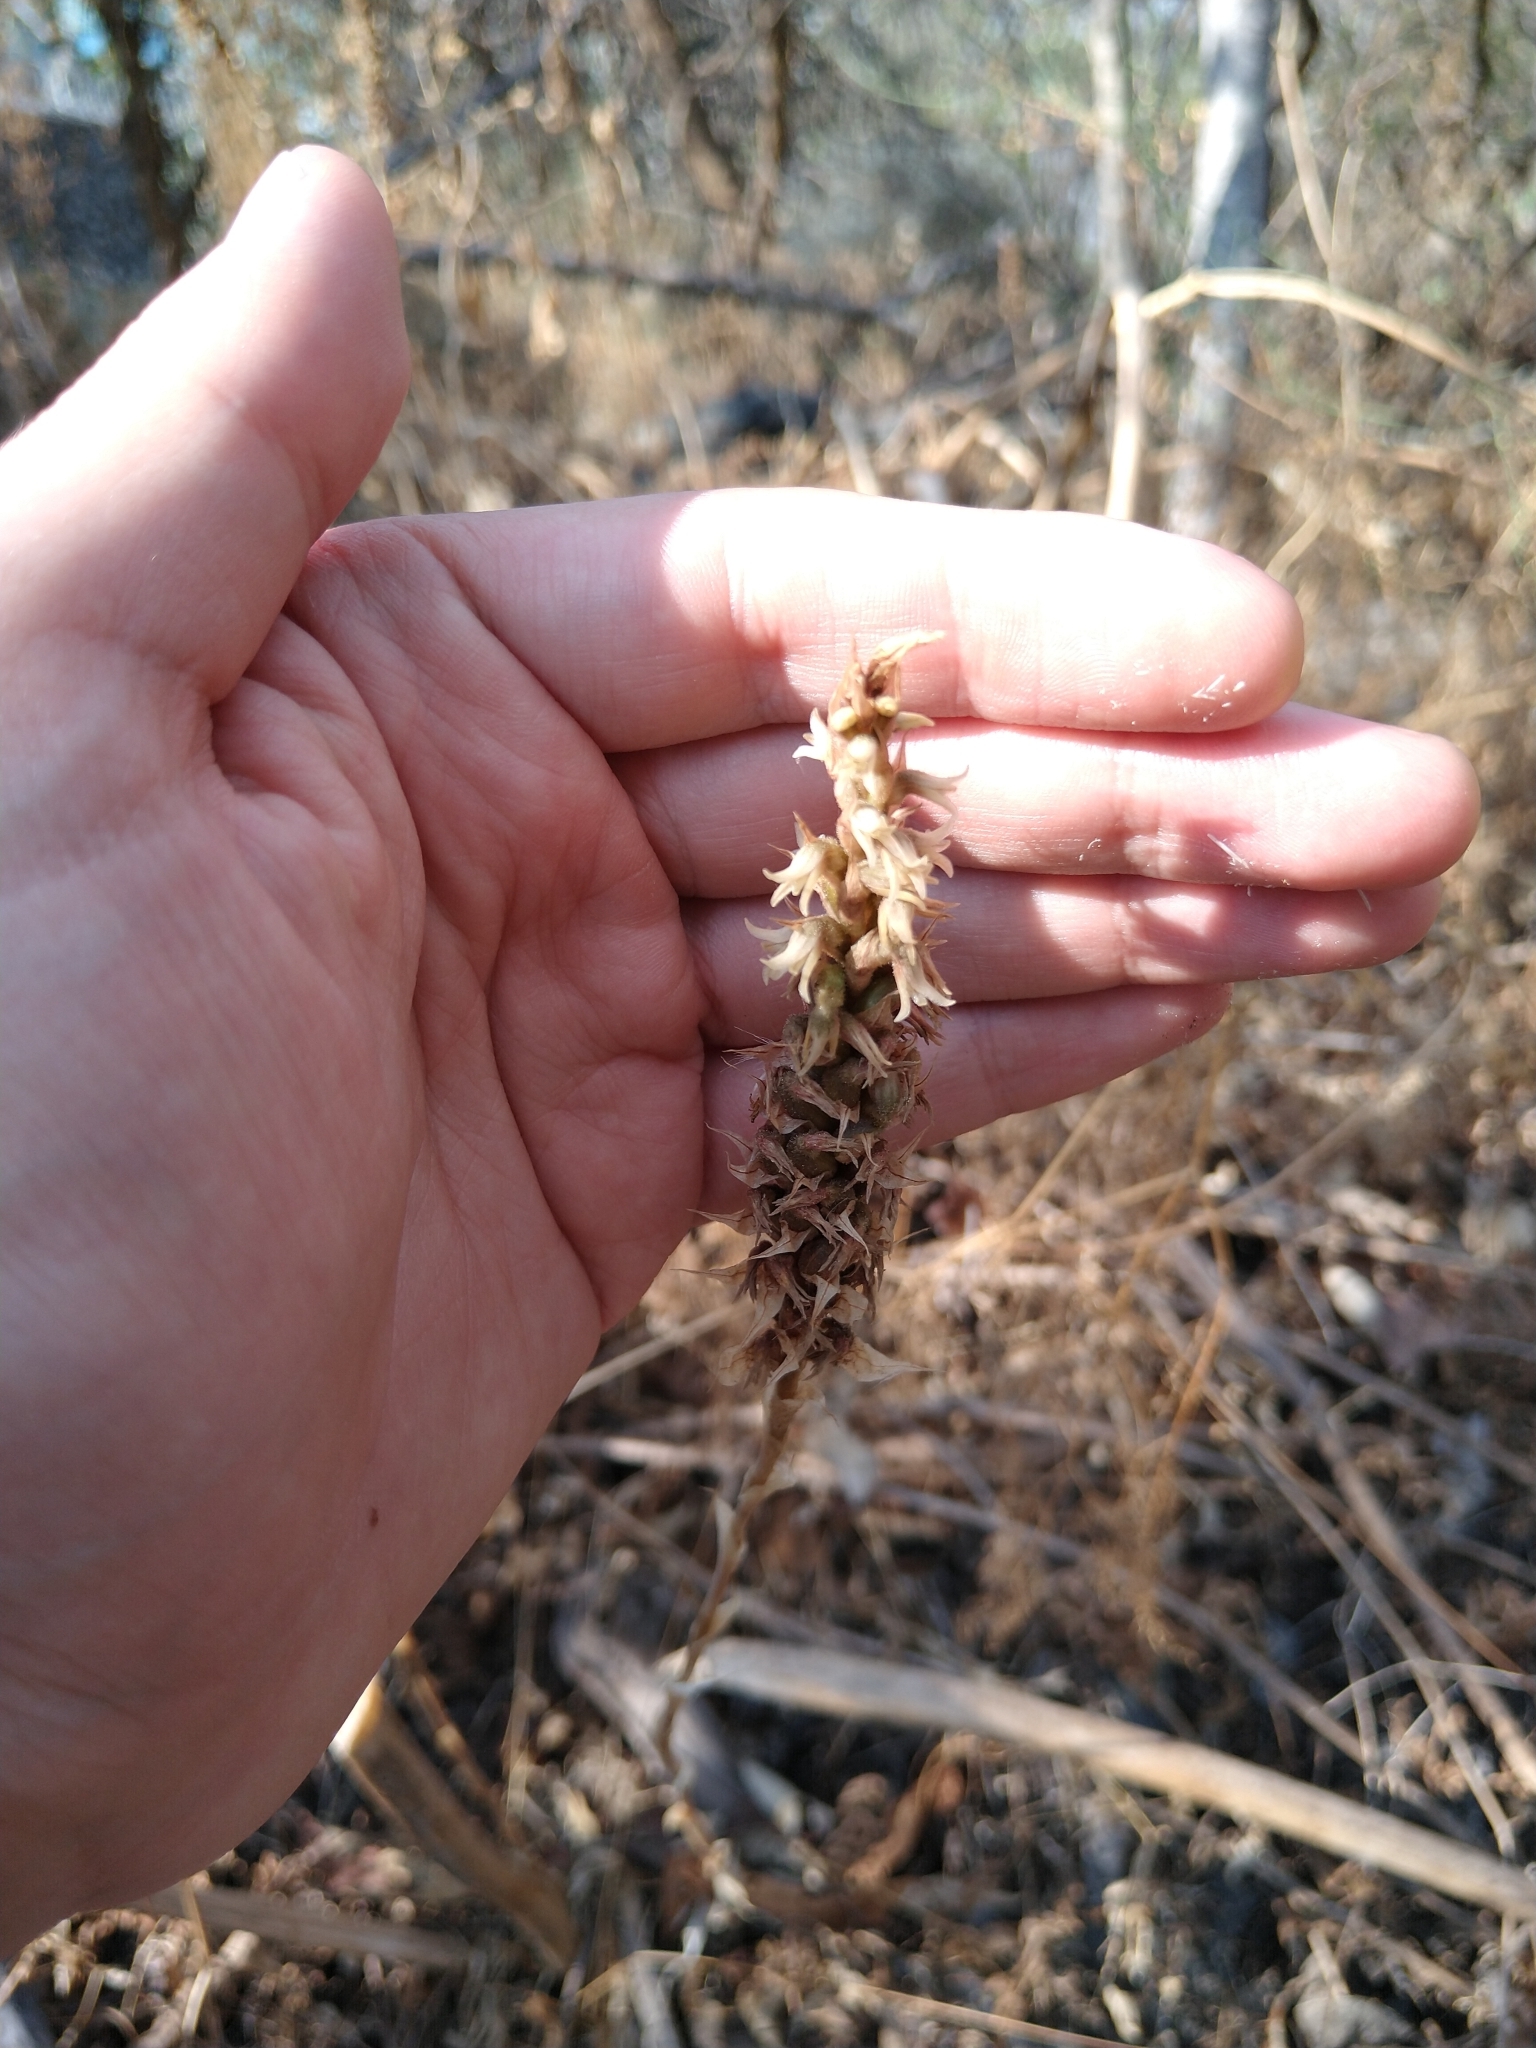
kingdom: Plantae
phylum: Tracheophyta
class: Liliopsida
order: Asparagales
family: Orchidaceae
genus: Aulosepalum
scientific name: Aulosepalum pyramidale
